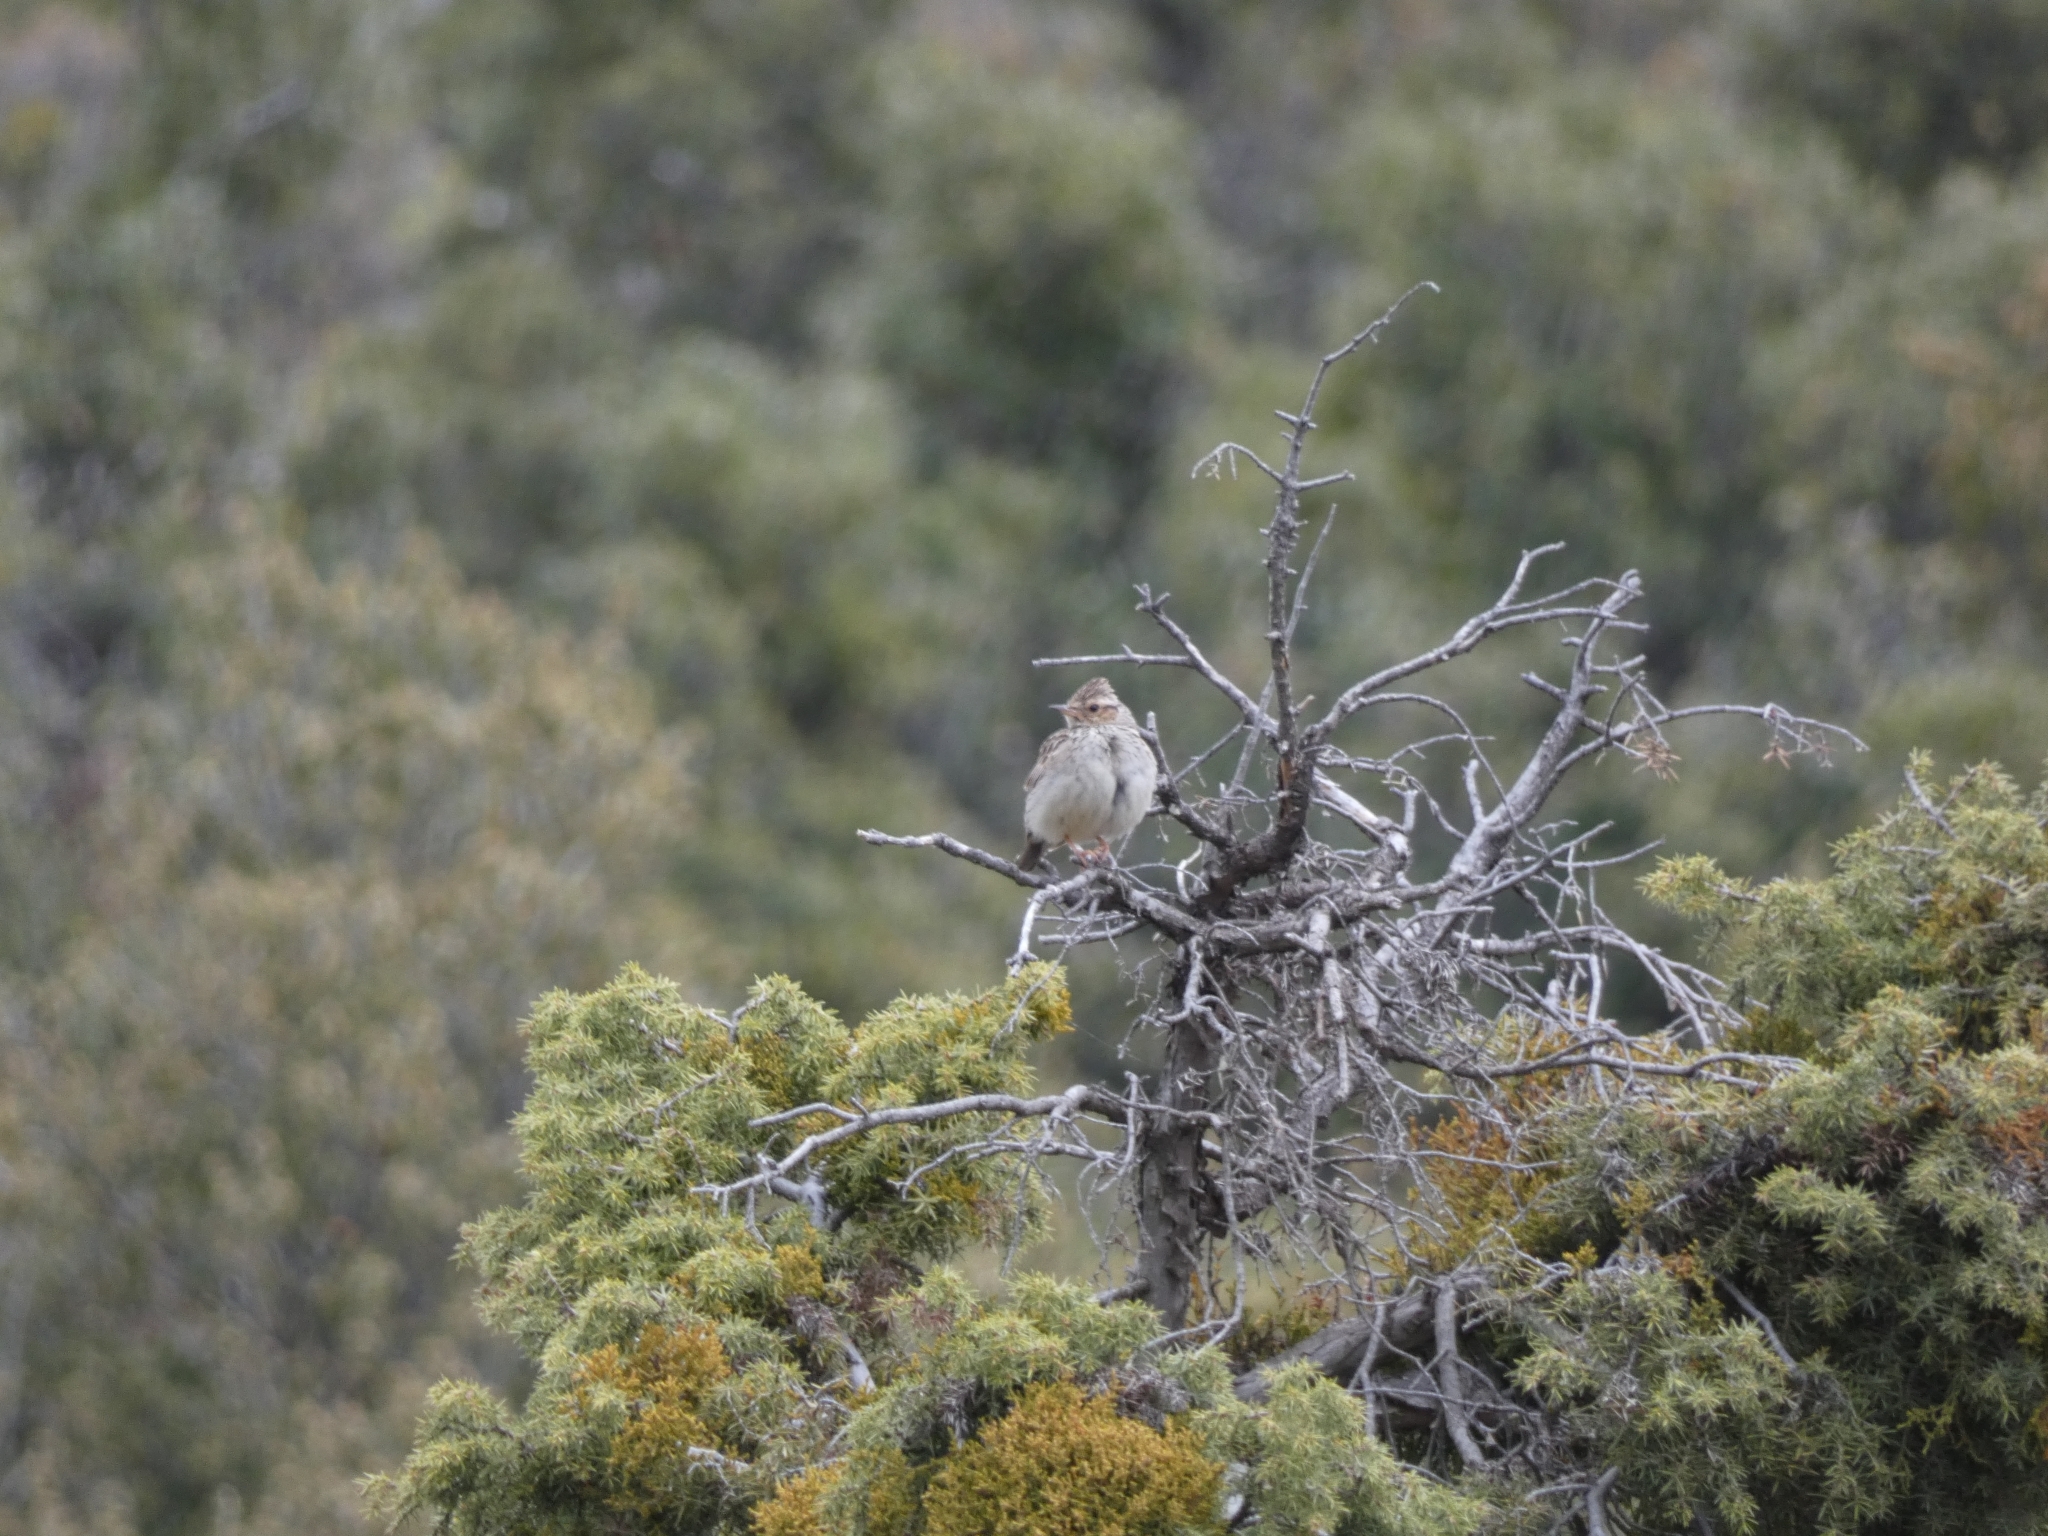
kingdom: Animalia
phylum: Chordata
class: Aves
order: Passeriformes
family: Alaudidae
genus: Lullula
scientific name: Lullula arborea
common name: Woodlark
